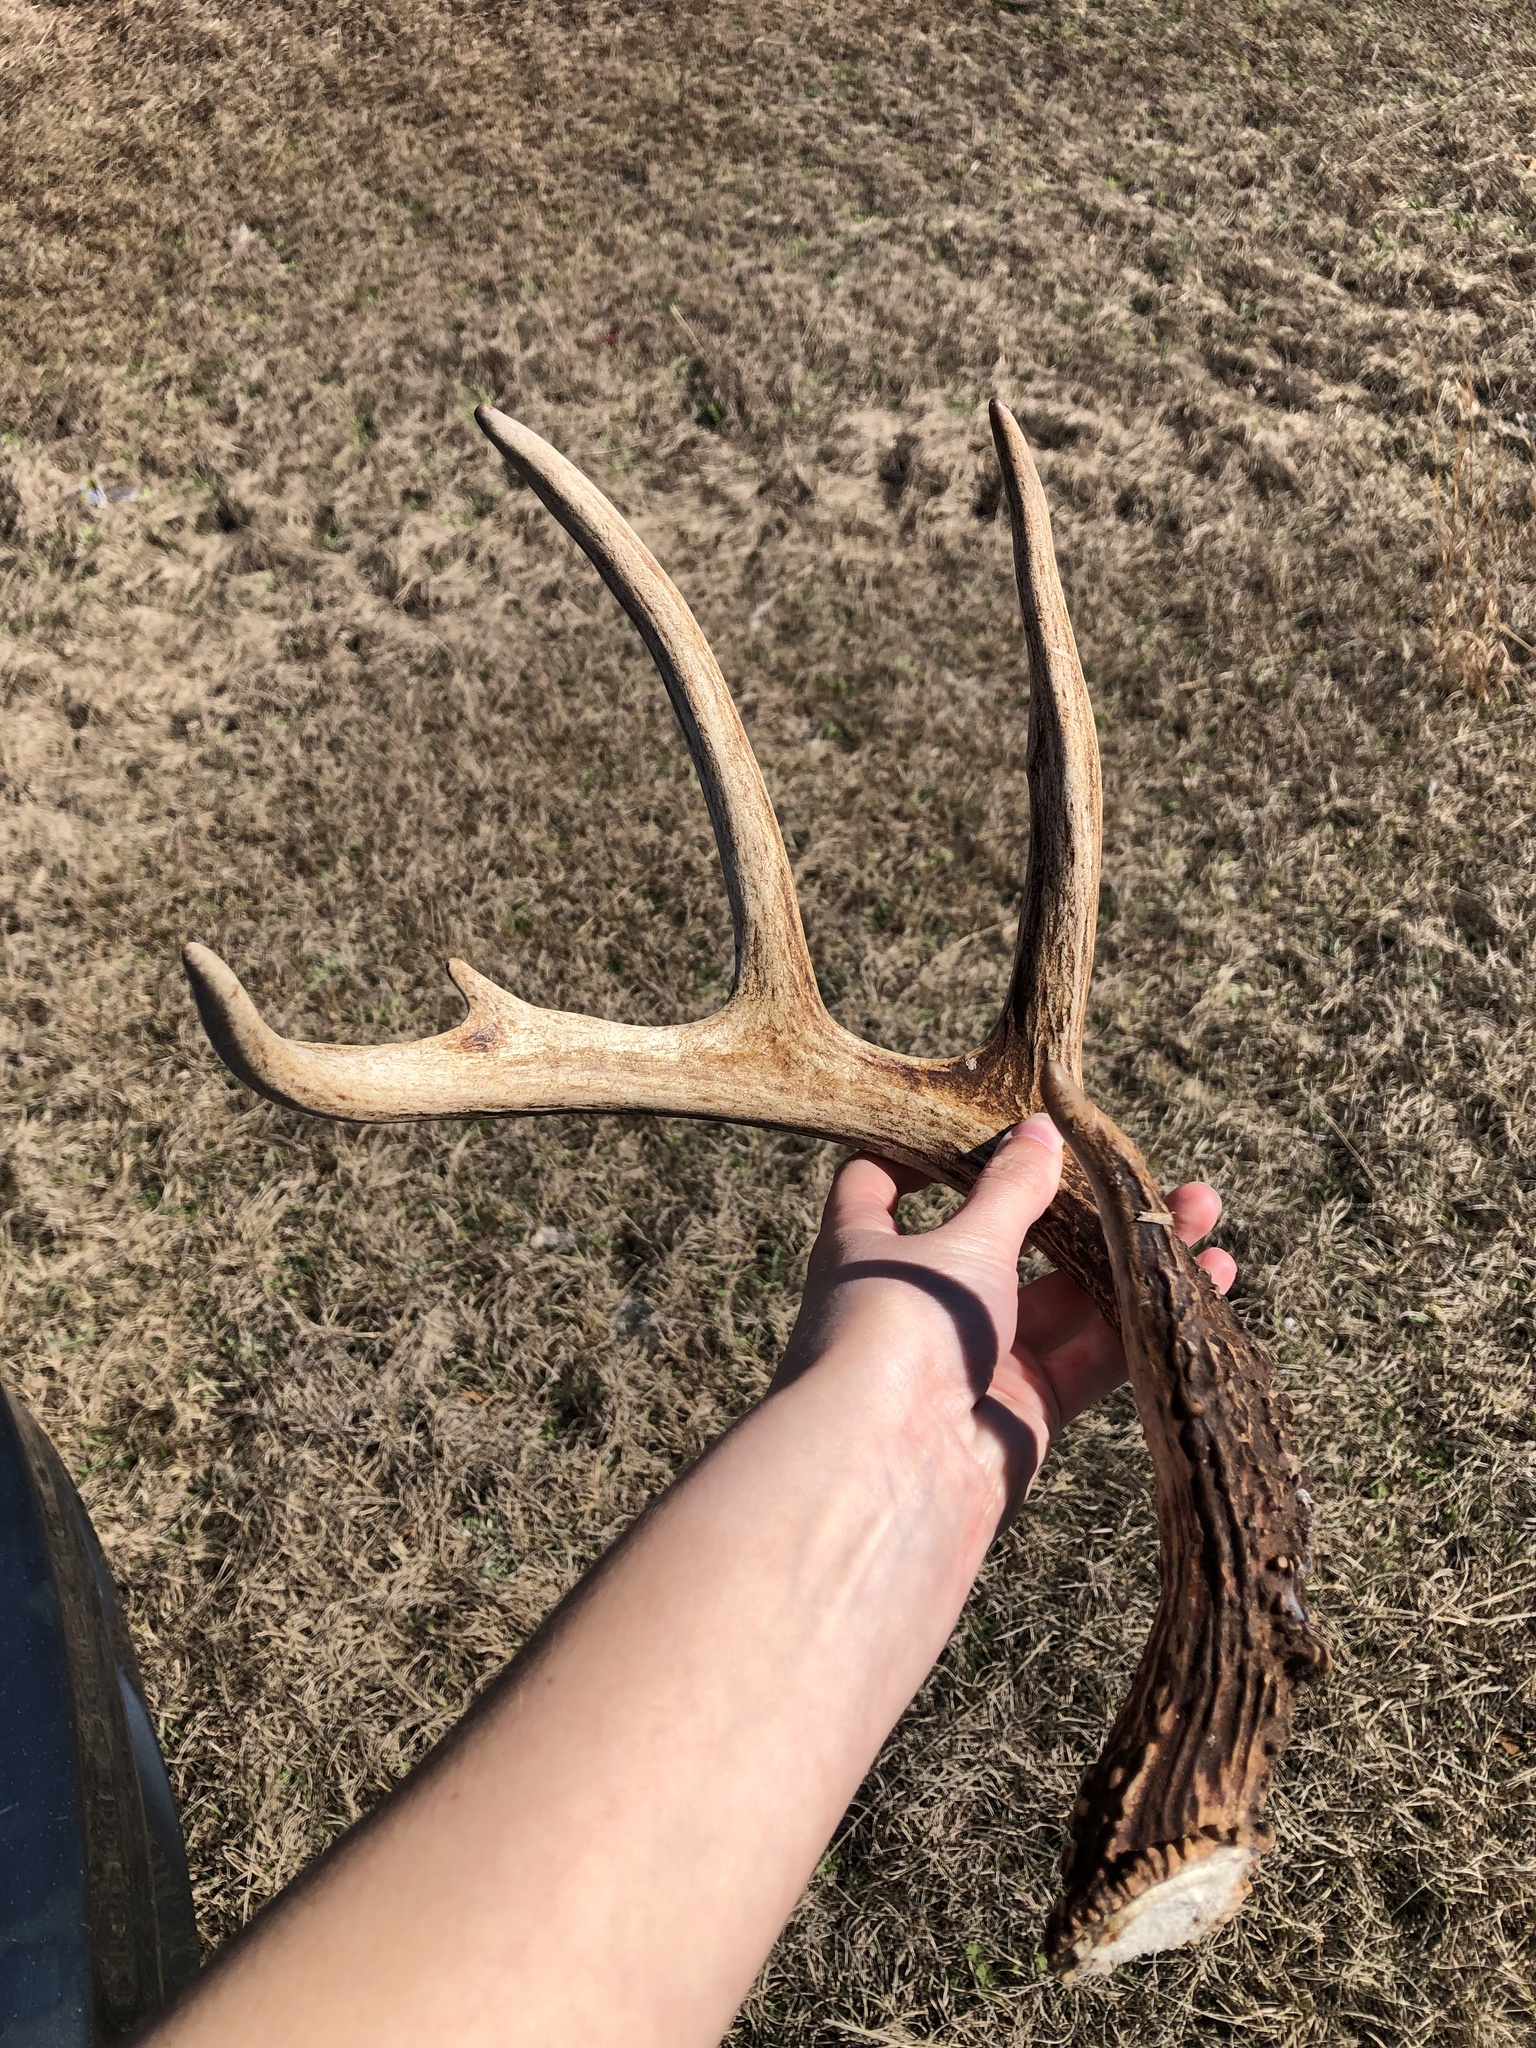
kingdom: Animalia
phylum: Chordata
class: Mammalia
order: Artiodactyla
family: Cervidae
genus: Odocoileus
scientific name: Odocoileus virginianus
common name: White-tailed deer
